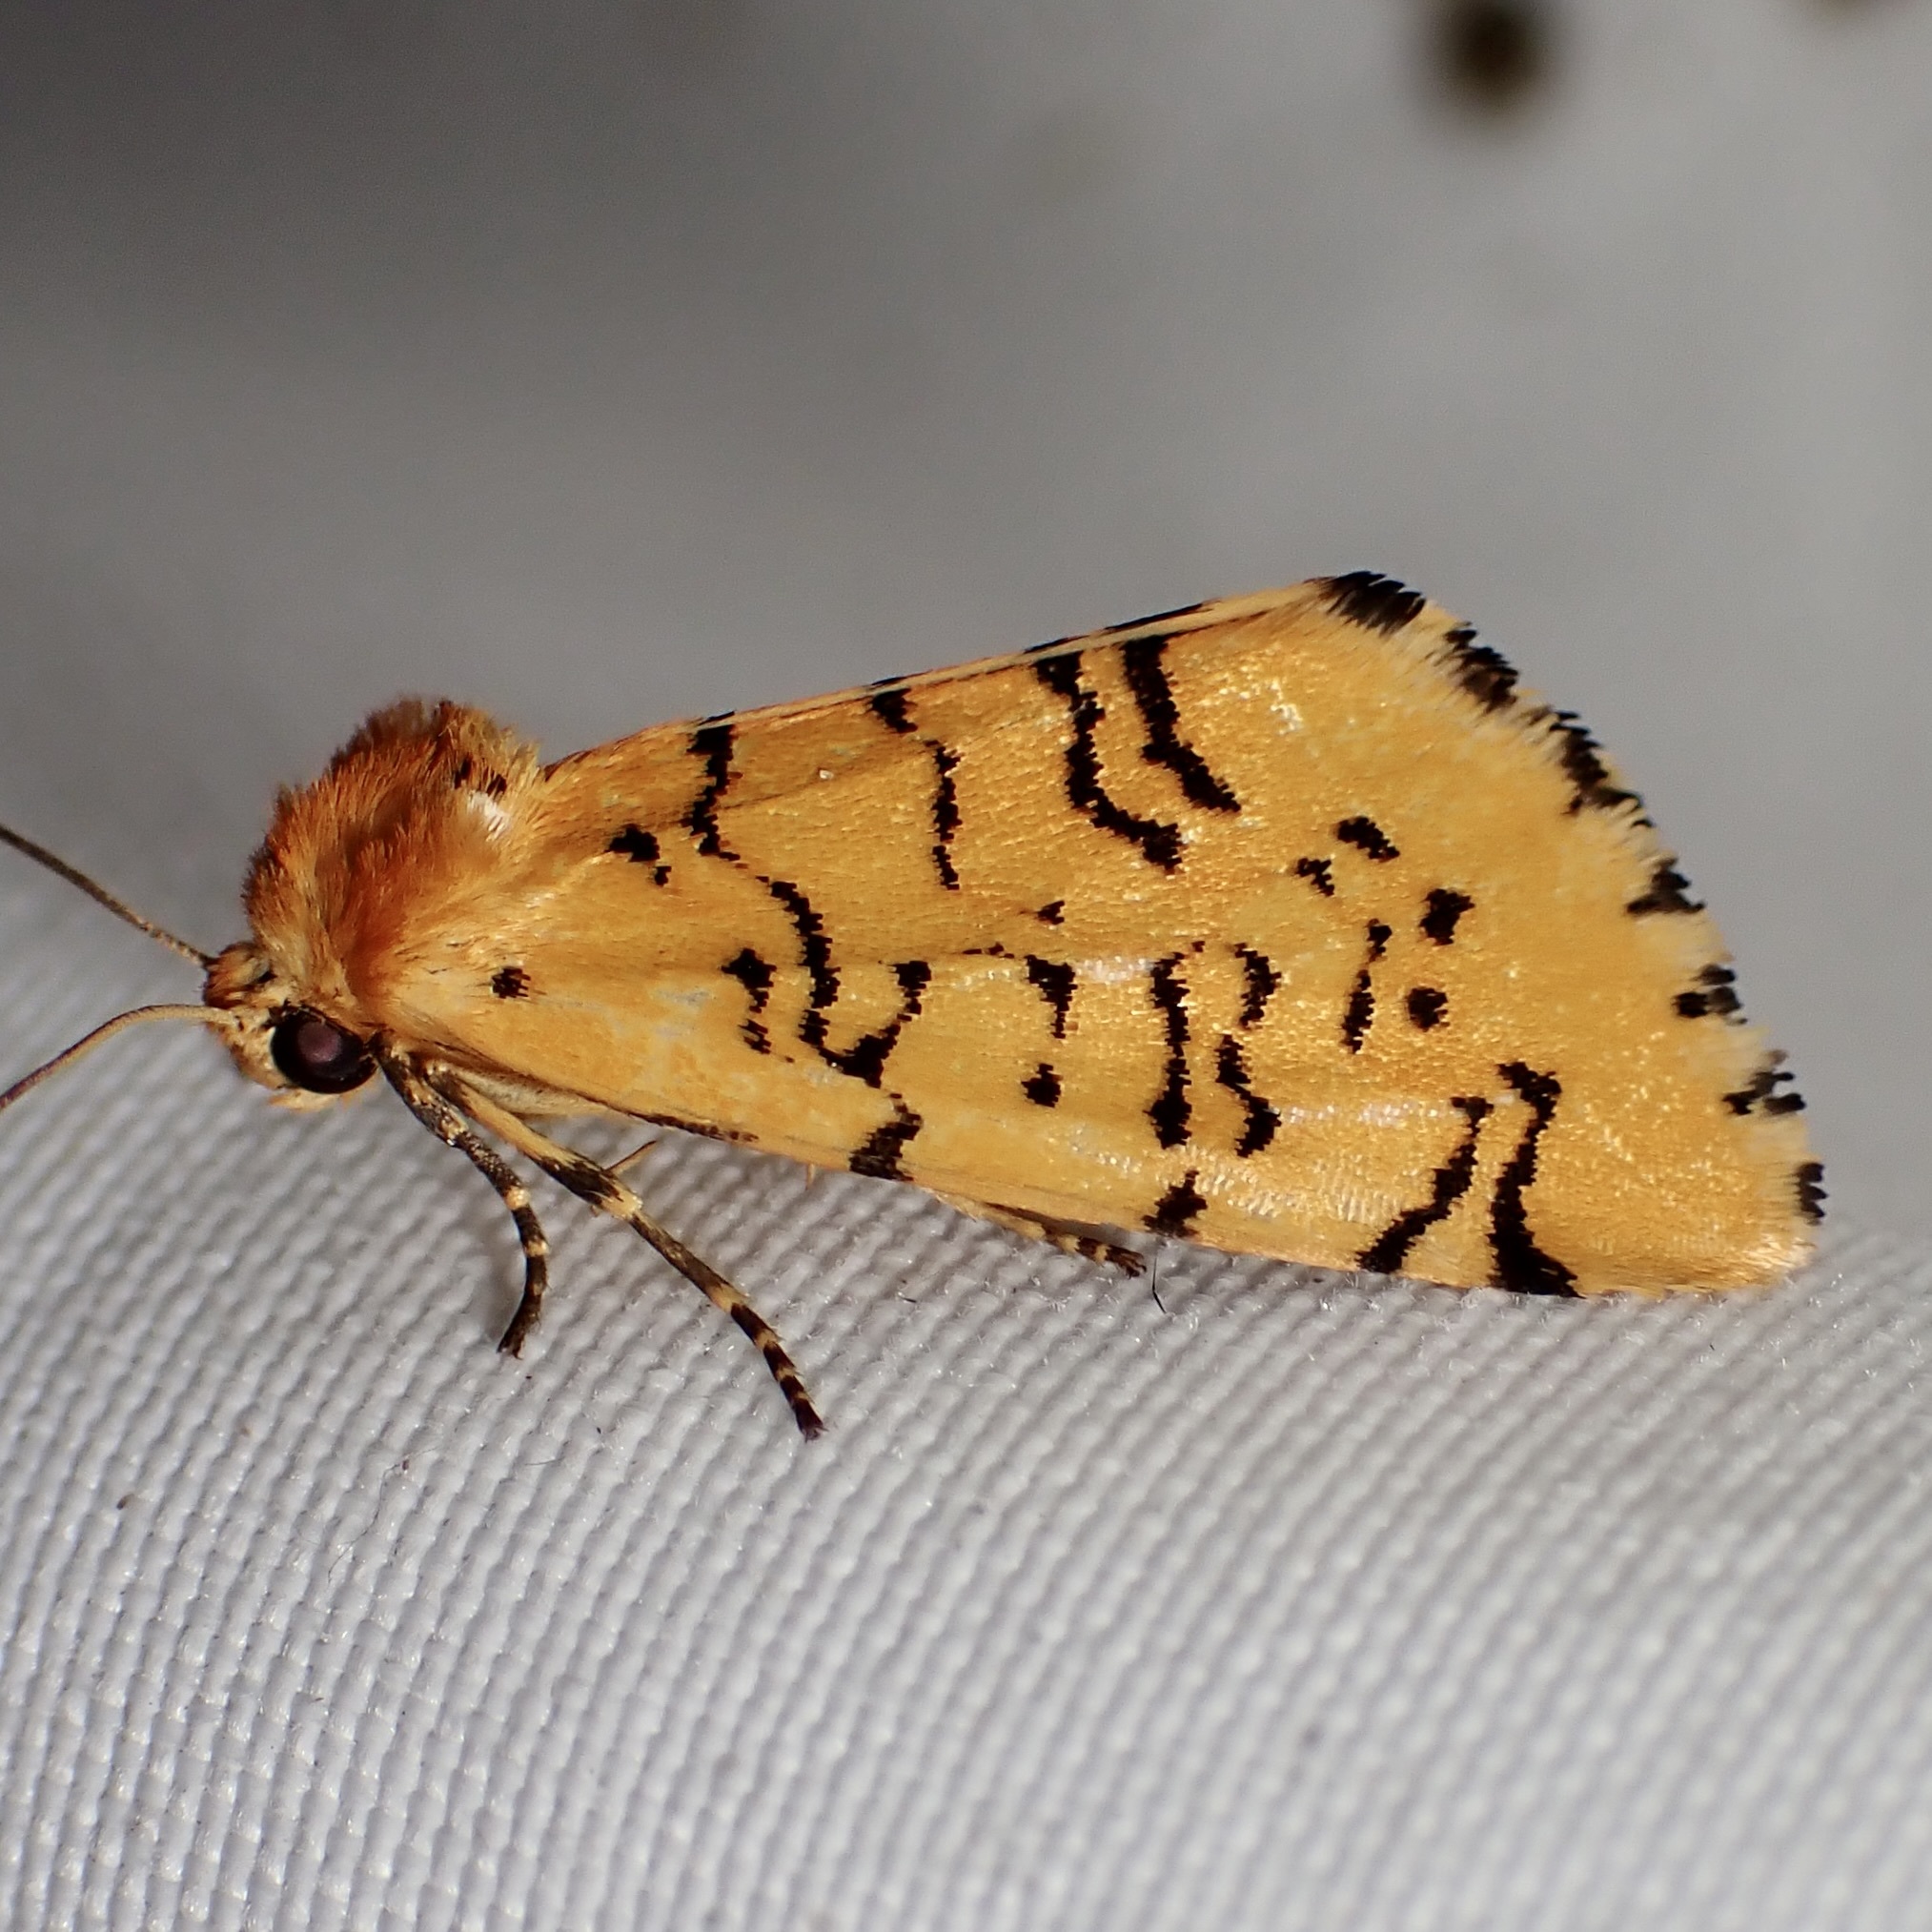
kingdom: Animalia
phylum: Arthropoda
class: Insecta
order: Lepidoptera
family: Noctuidae
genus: Chrysoecia
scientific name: Chrysoecia atrolinea
